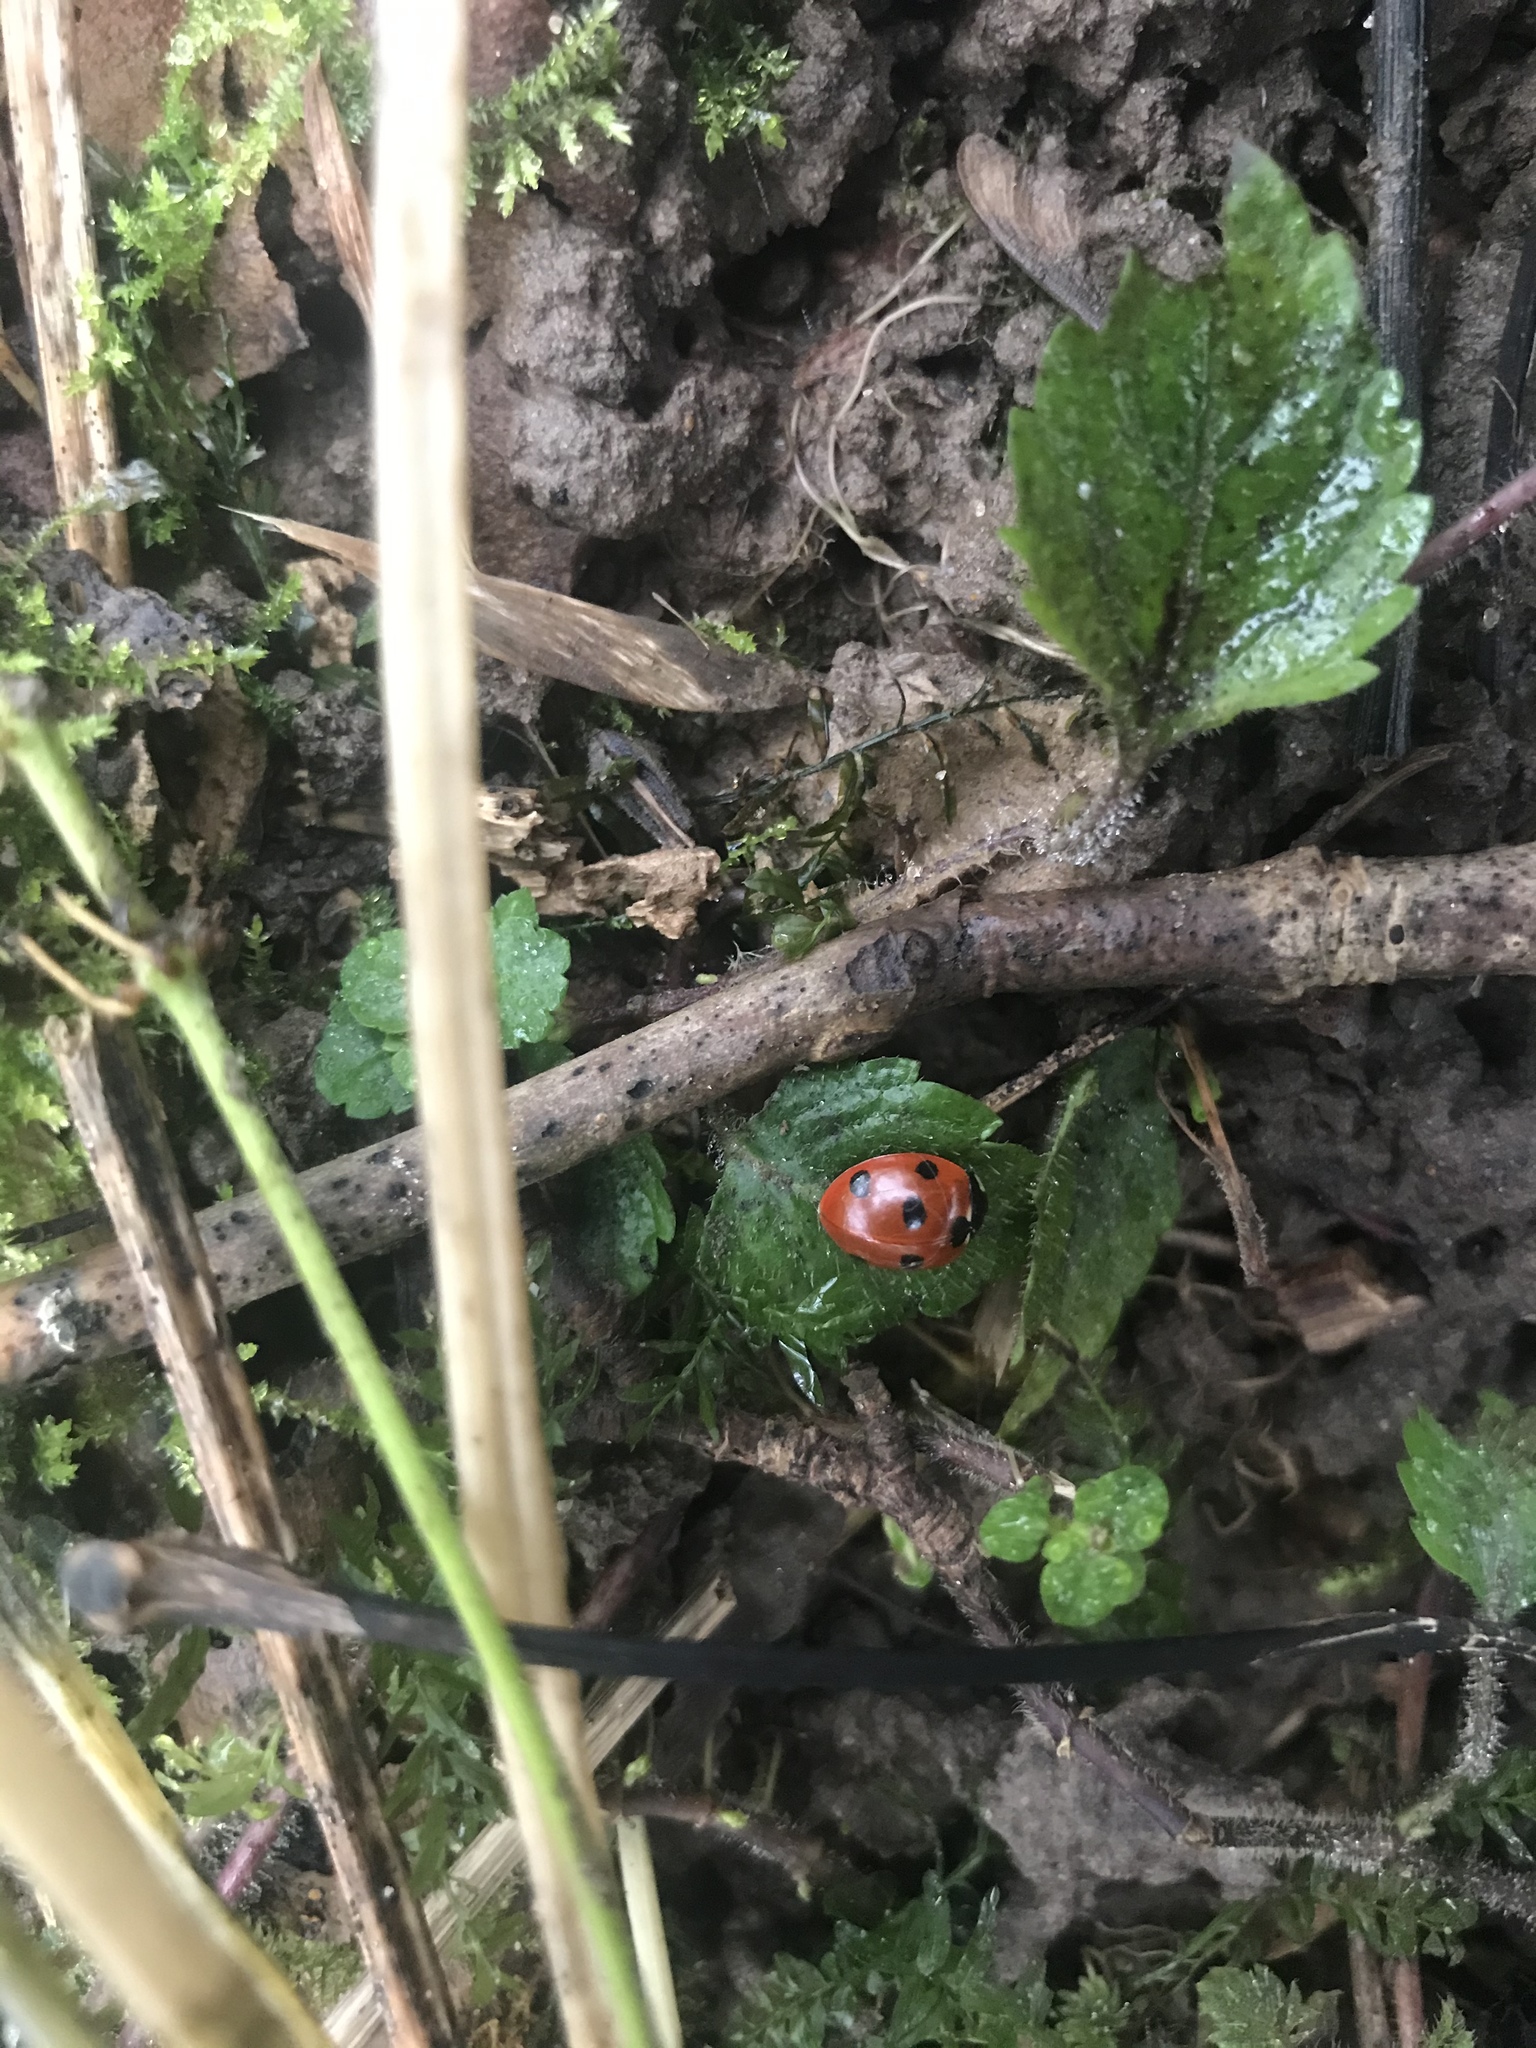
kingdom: Animalia
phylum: Arthropoda
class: Insecta
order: Coleoptera
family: Coccinellidae
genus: Coccinella
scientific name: Coccinella septempunctata
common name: Sevenspotted lady beetle
